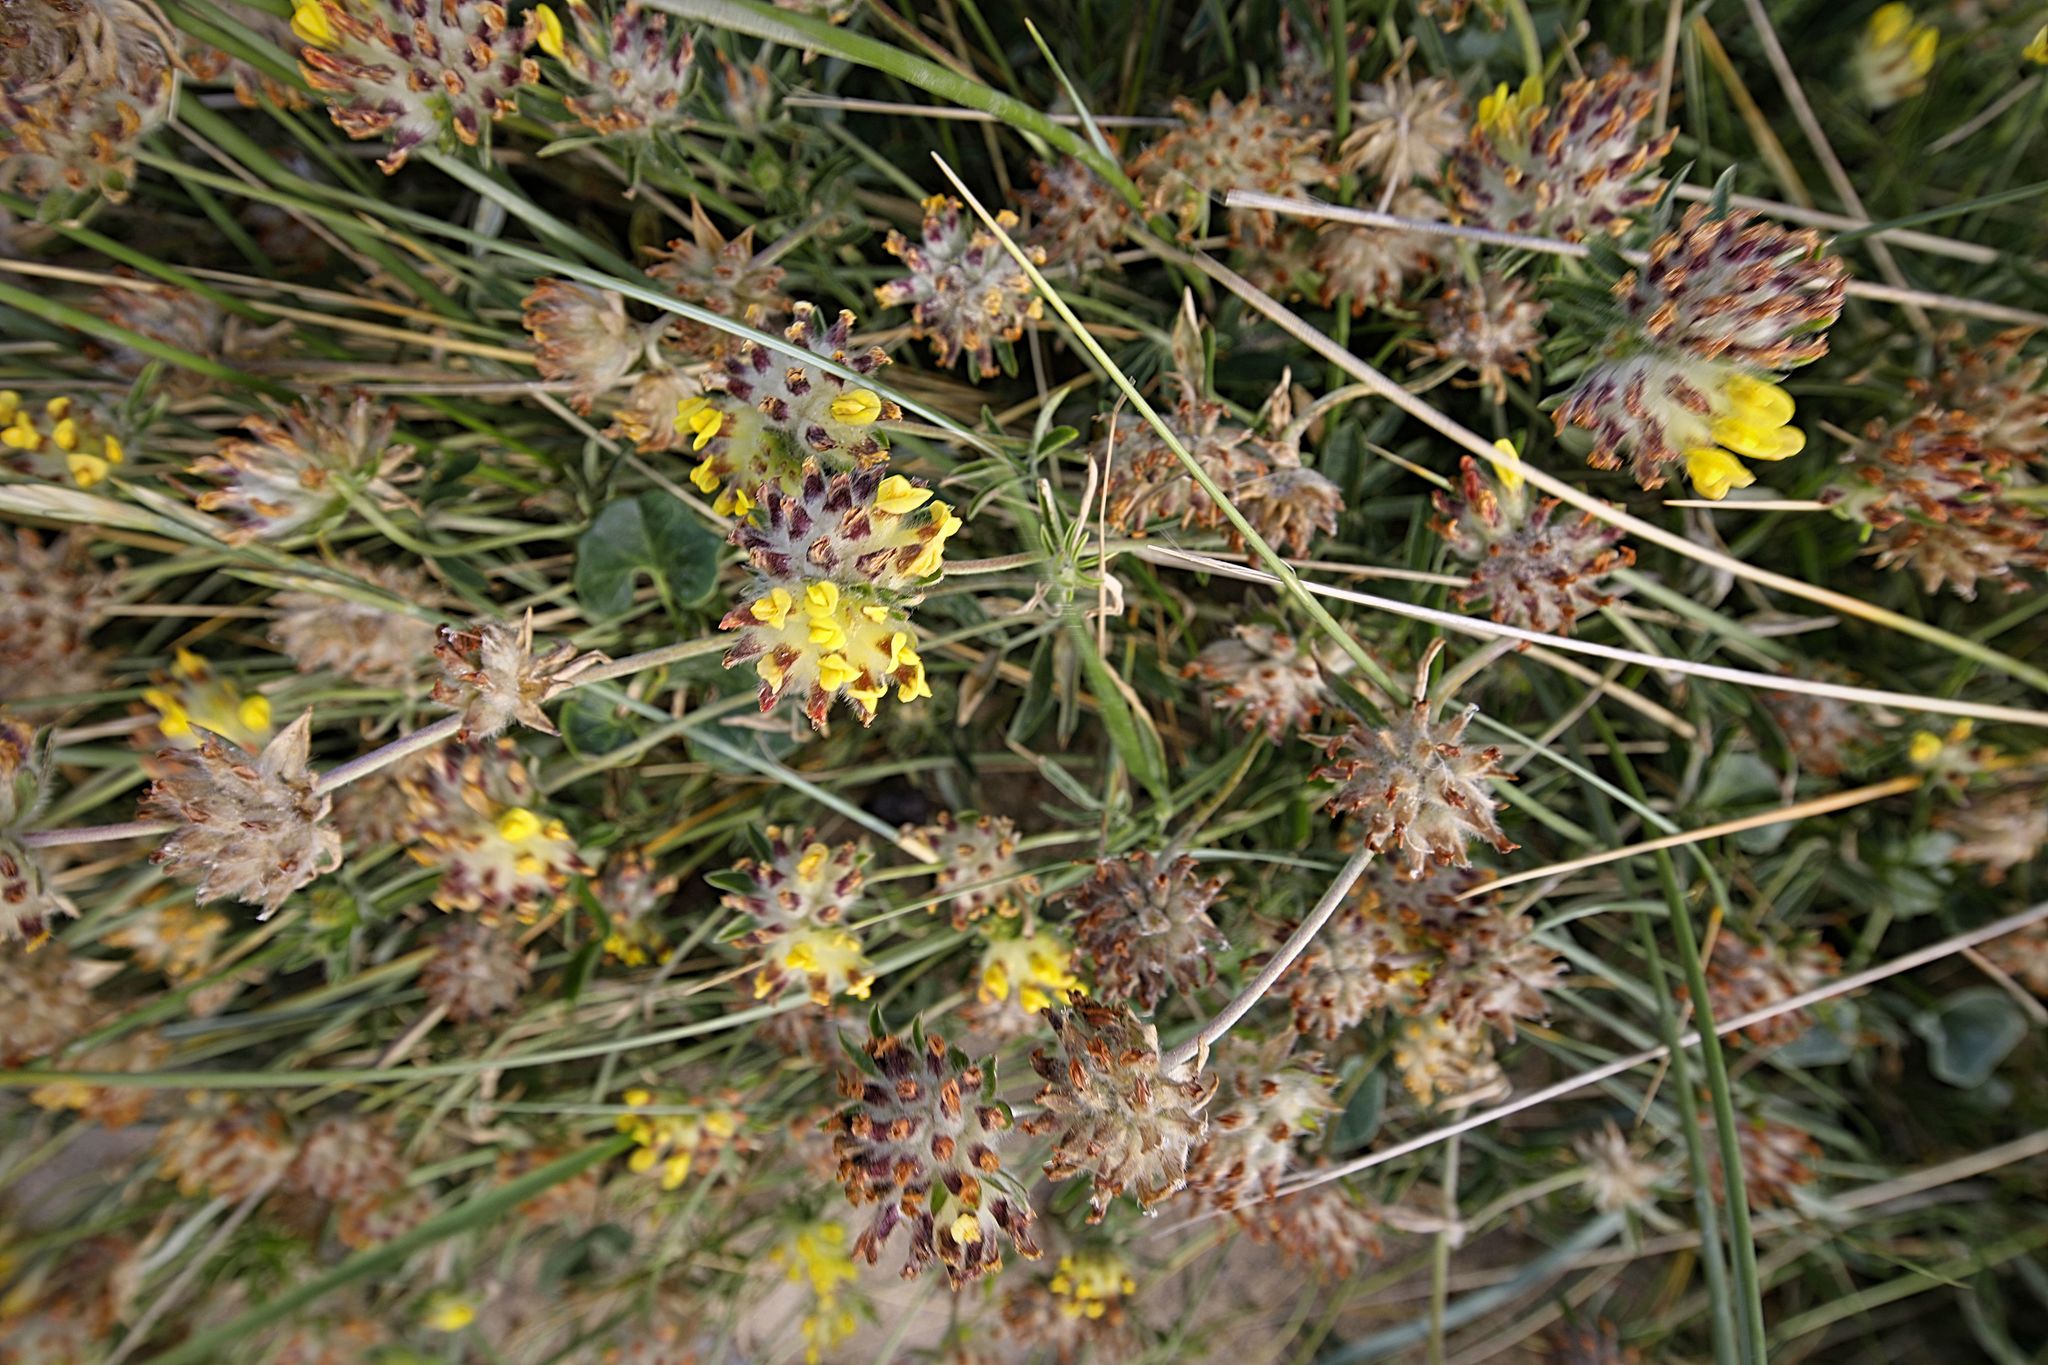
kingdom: Plantae
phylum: Tracheophyta
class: Magnoliopsida
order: Fabales
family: Fabaceae
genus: Anthyllis
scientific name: Anthyllis vulneraria
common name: Kidney vetch
